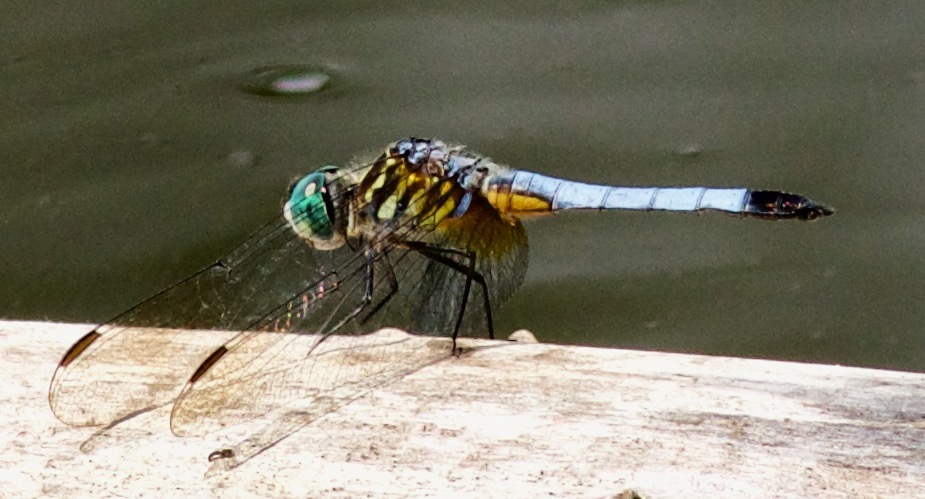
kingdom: Animalia
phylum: Arthropoda
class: Insecta
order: Odonata
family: Libellulidae
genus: Pachydiplax
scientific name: Pachydiplax longipennis
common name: Blue dasher
